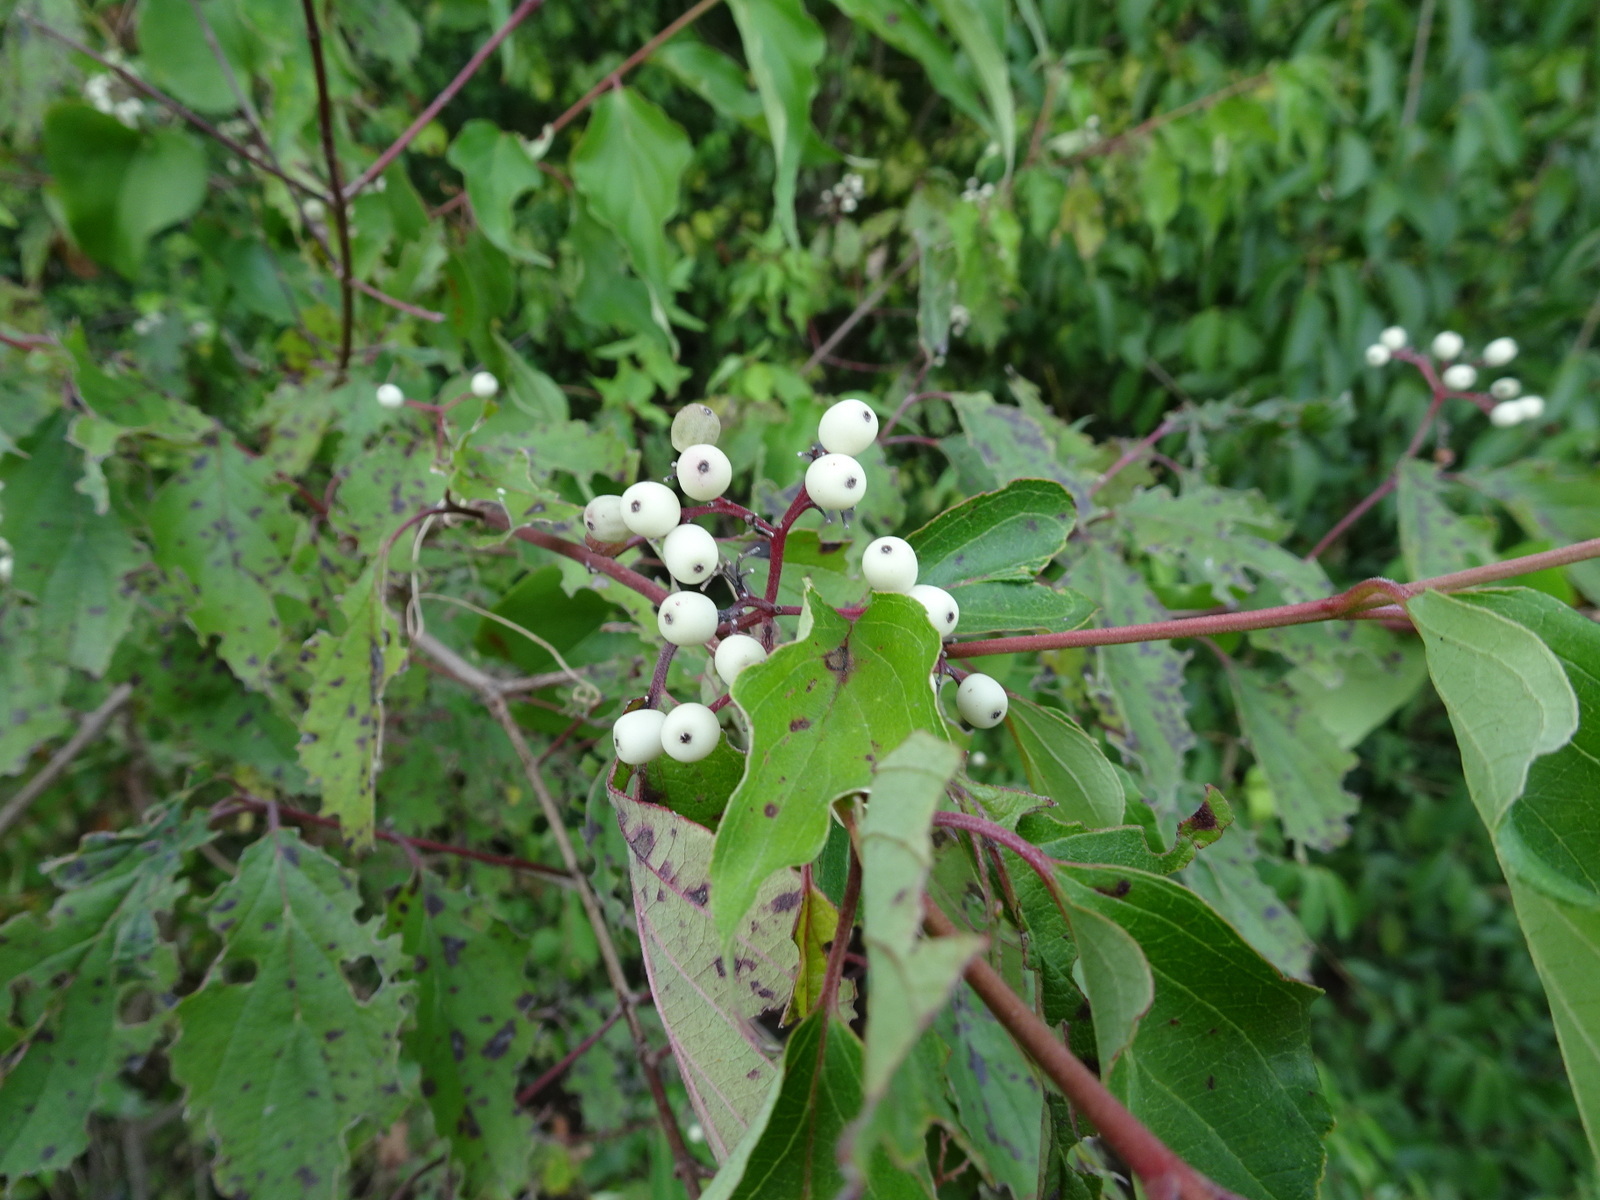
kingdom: Plantae
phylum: Tracheophyta
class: Magnoliopsida
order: Cornales
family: Cornaceae
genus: Cornus
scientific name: Cornus drummondii
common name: Rough-leaf dogwood
